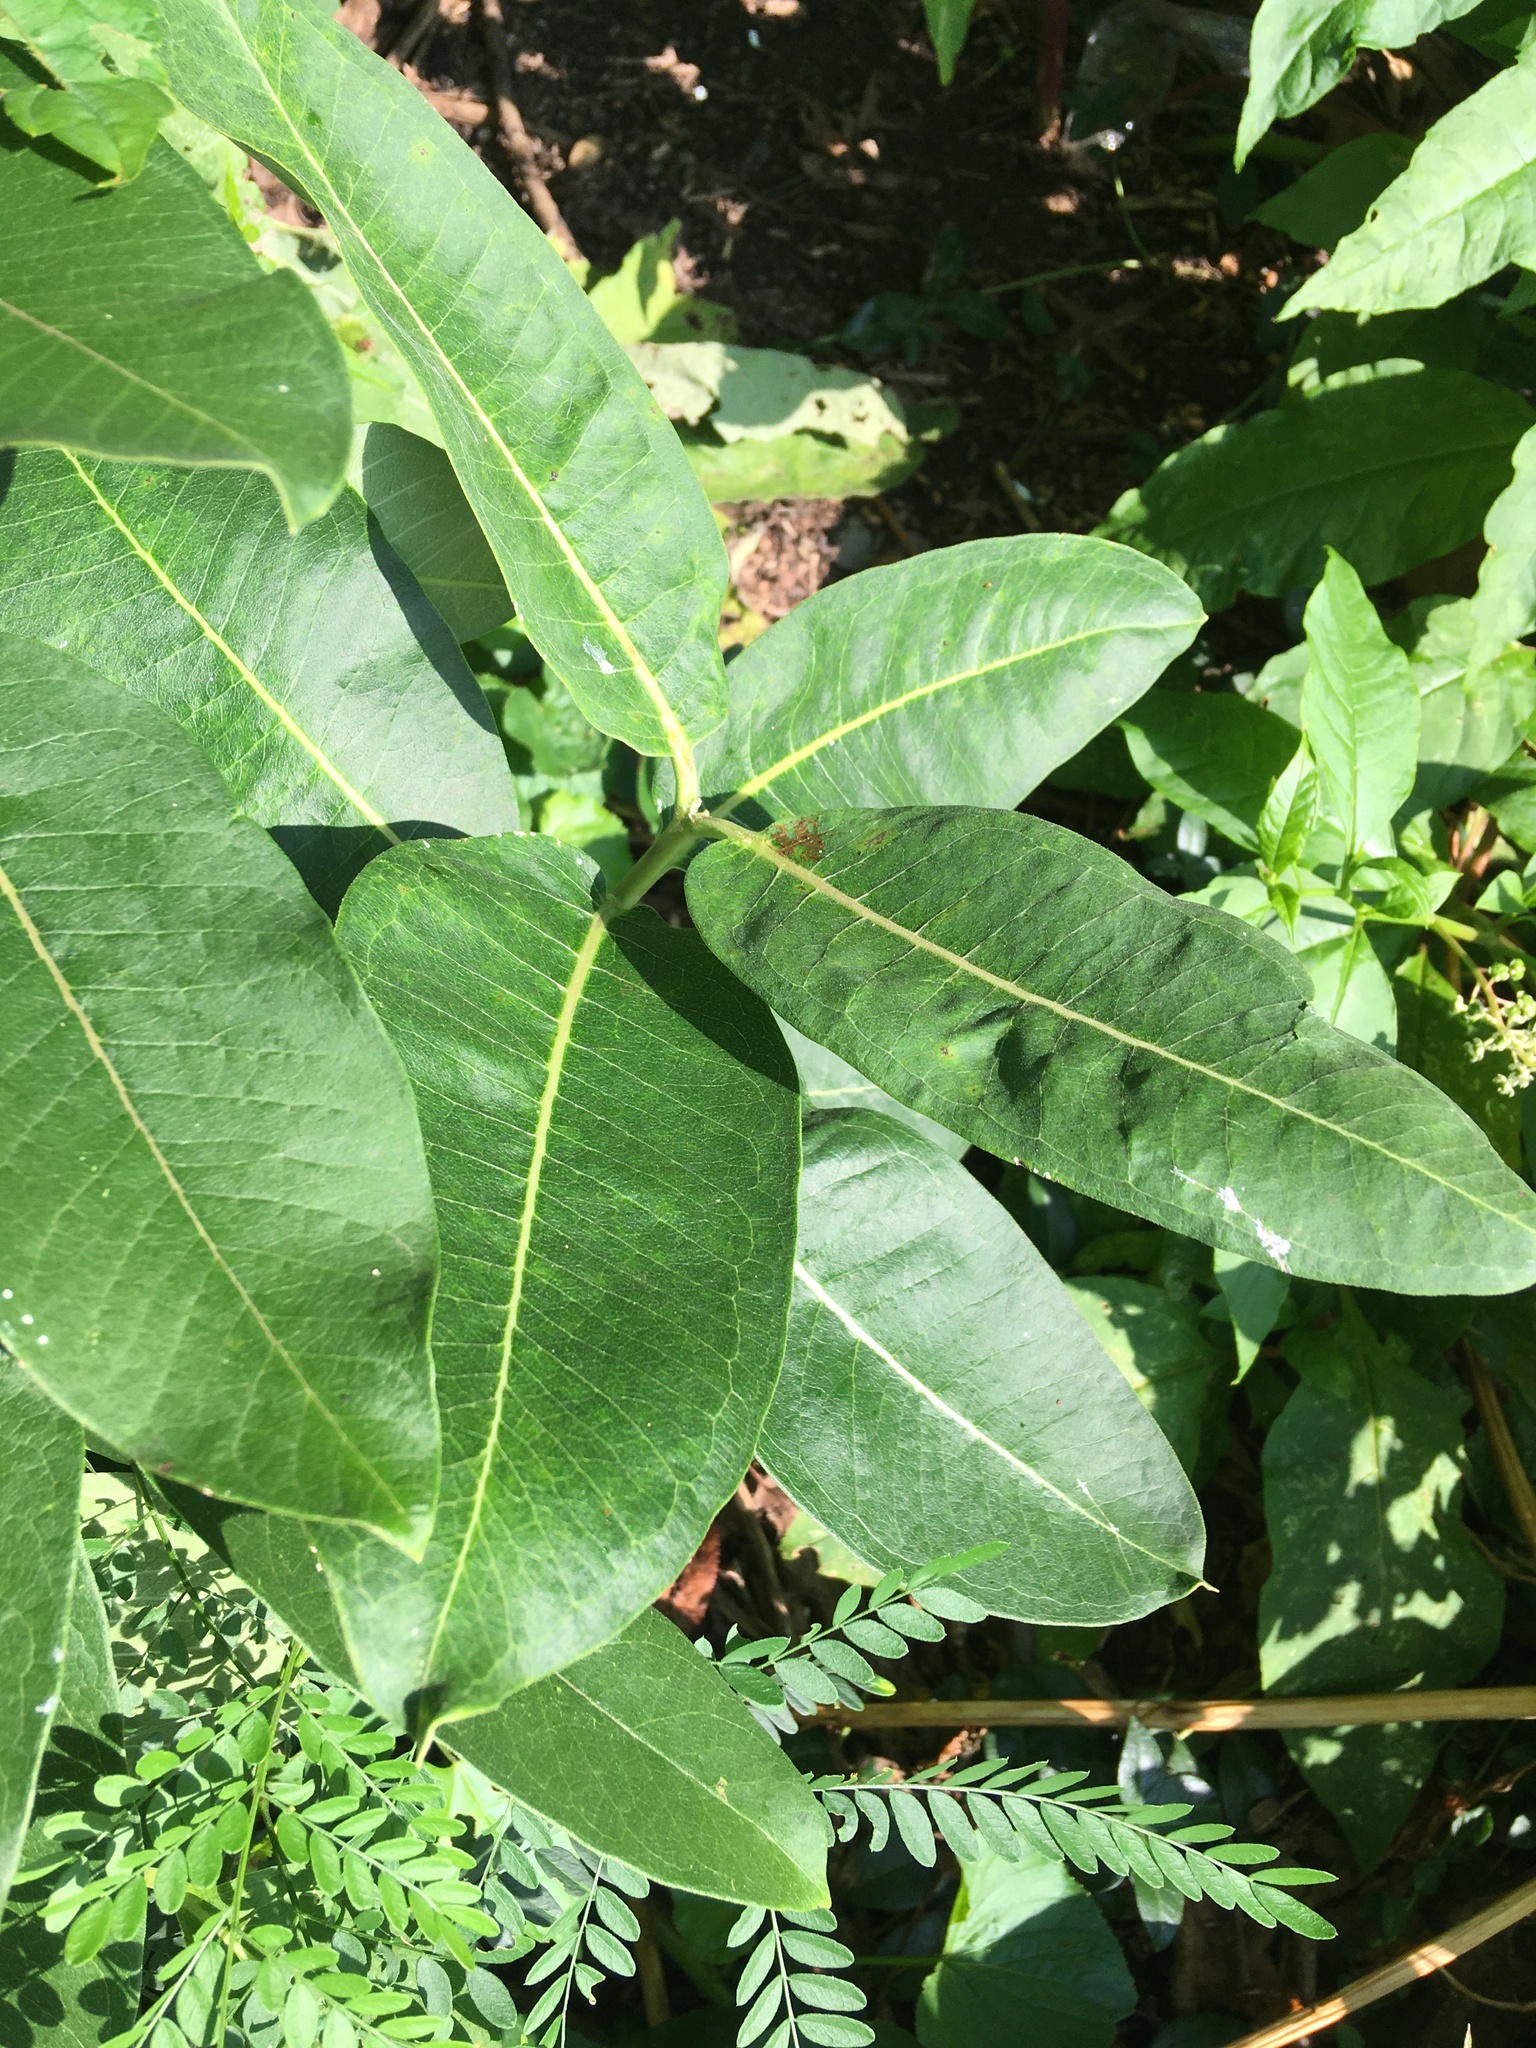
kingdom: Plantae
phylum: Tracheophyta
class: Magnoliopsida
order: Gentianales
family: Apocynaceae
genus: Asclepias
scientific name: Asclepias syriaca
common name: Common milkweed
